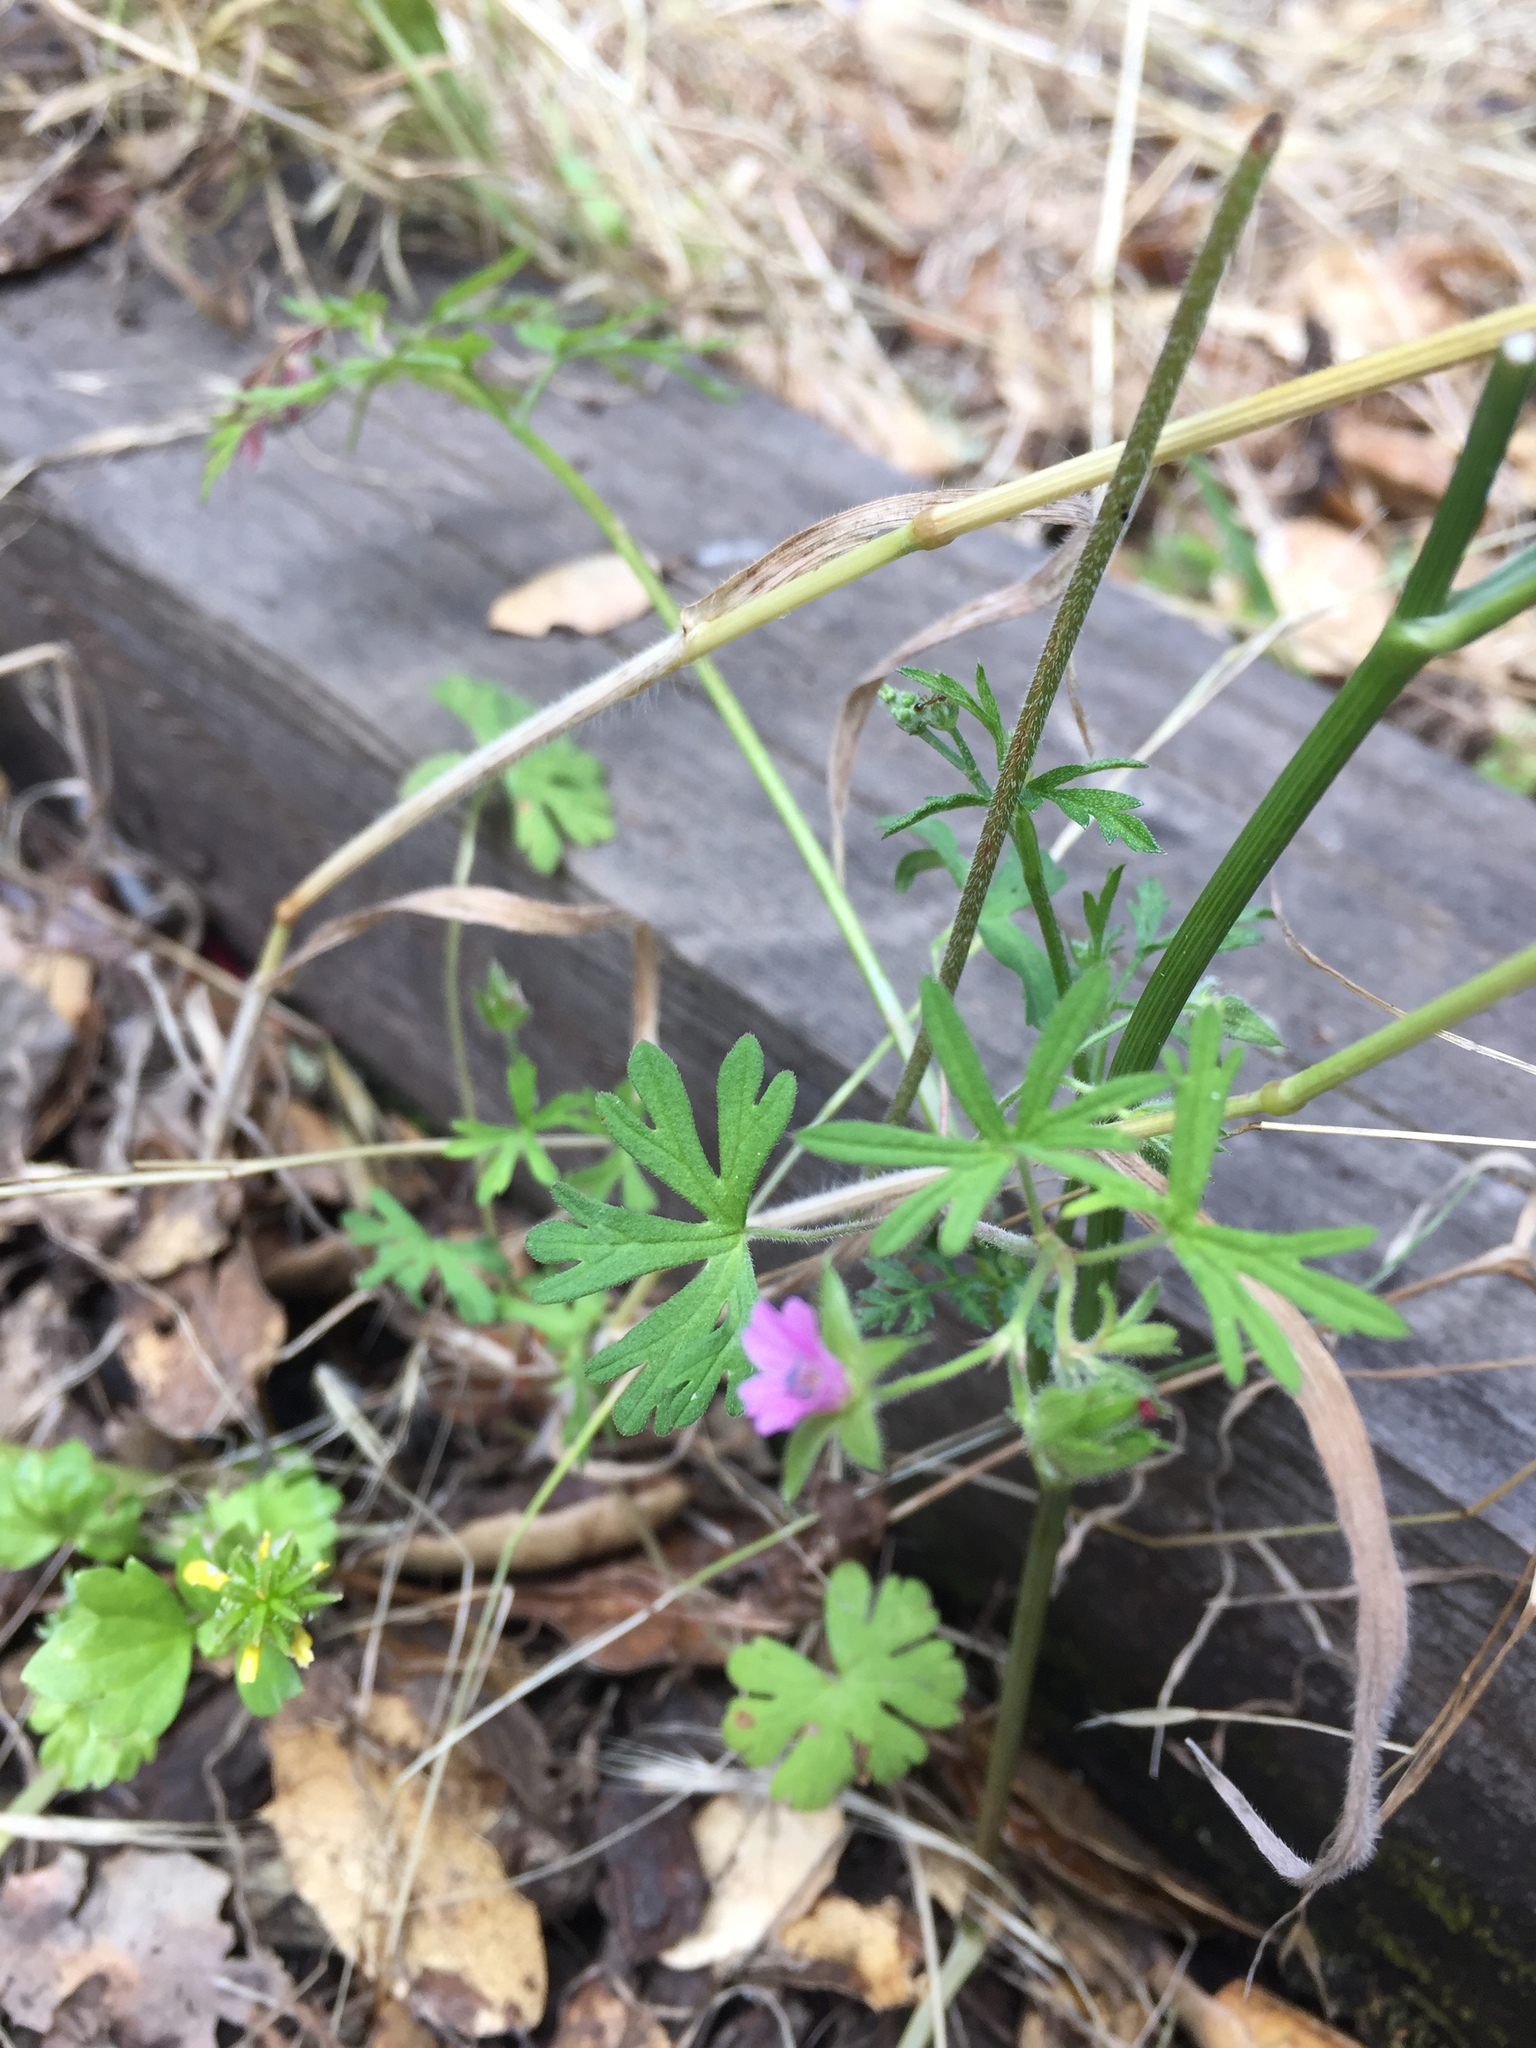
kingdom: Plantae
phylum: Tracheophyta
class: Magnoliopsida
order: Geraniales
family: Geraniaceae
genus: Geranium
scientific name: Geranium dissectum
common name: Cut-leaved crane's-bill
